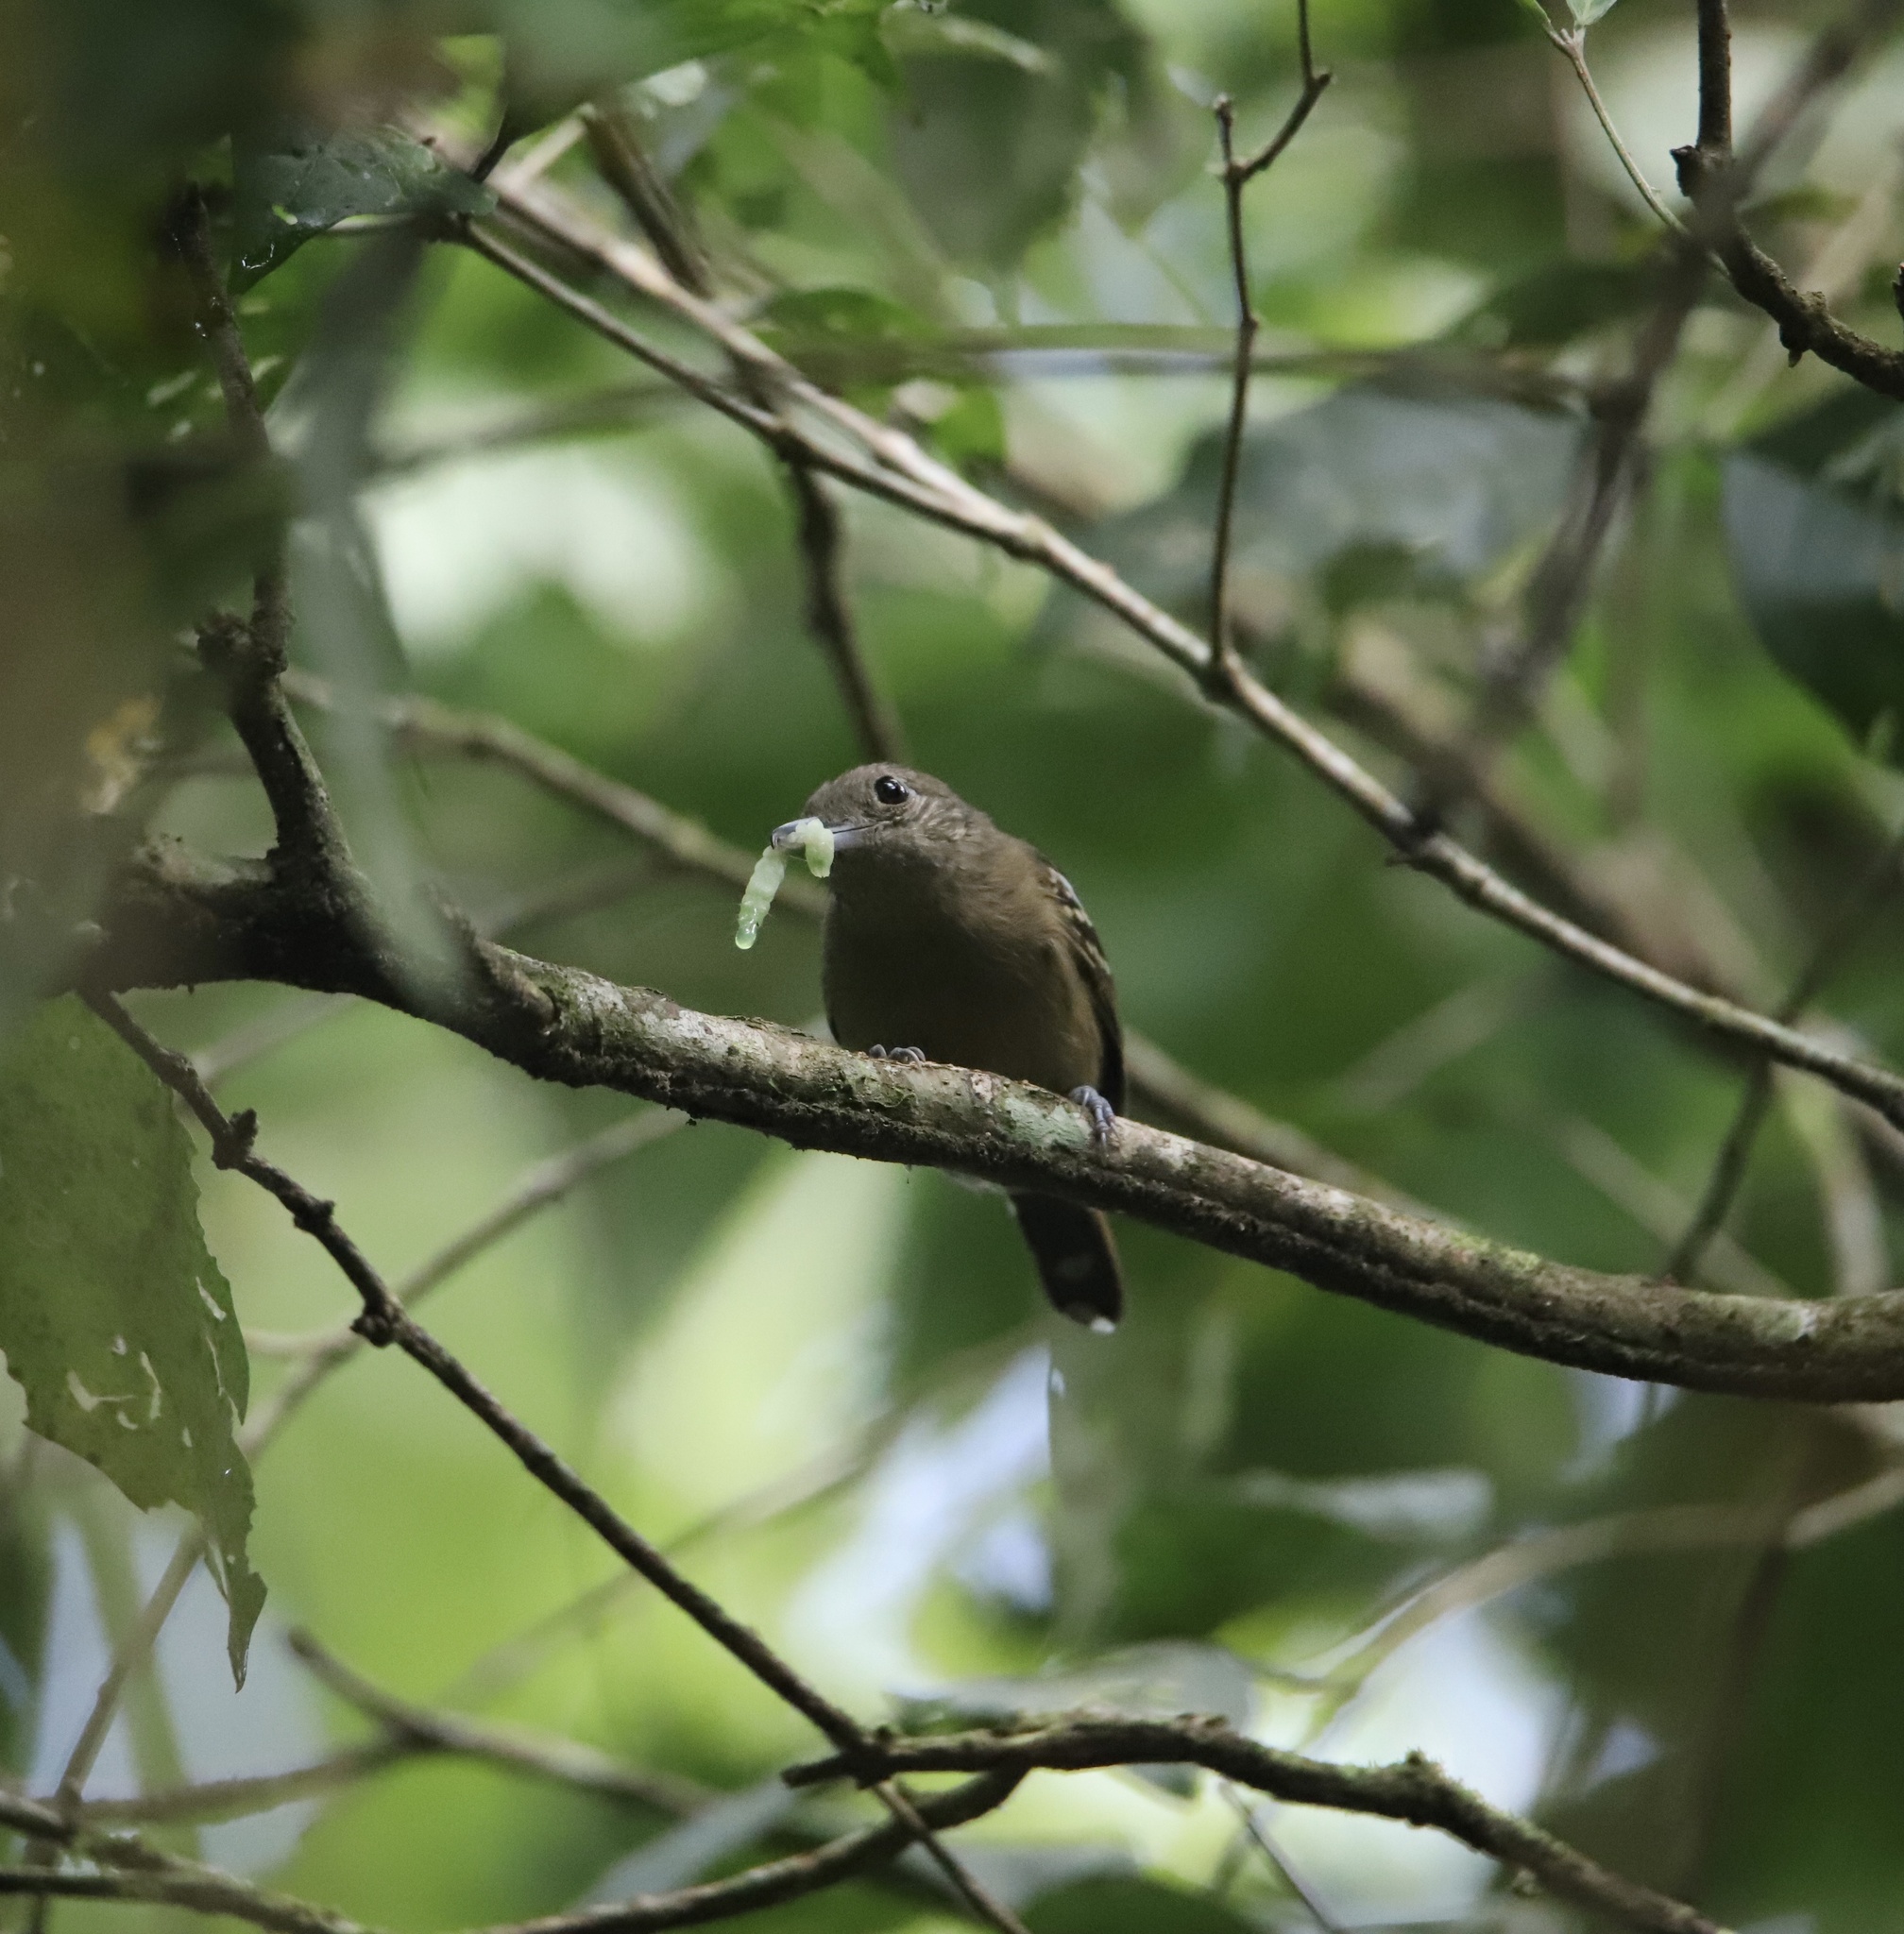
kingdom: Animalia
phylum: Chordata
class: Aves
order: Passeriformes
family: Thamnophilidae
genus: Thamnophilus
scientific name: Thamnophilus atrinucha
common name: Black-crowned antshrike
